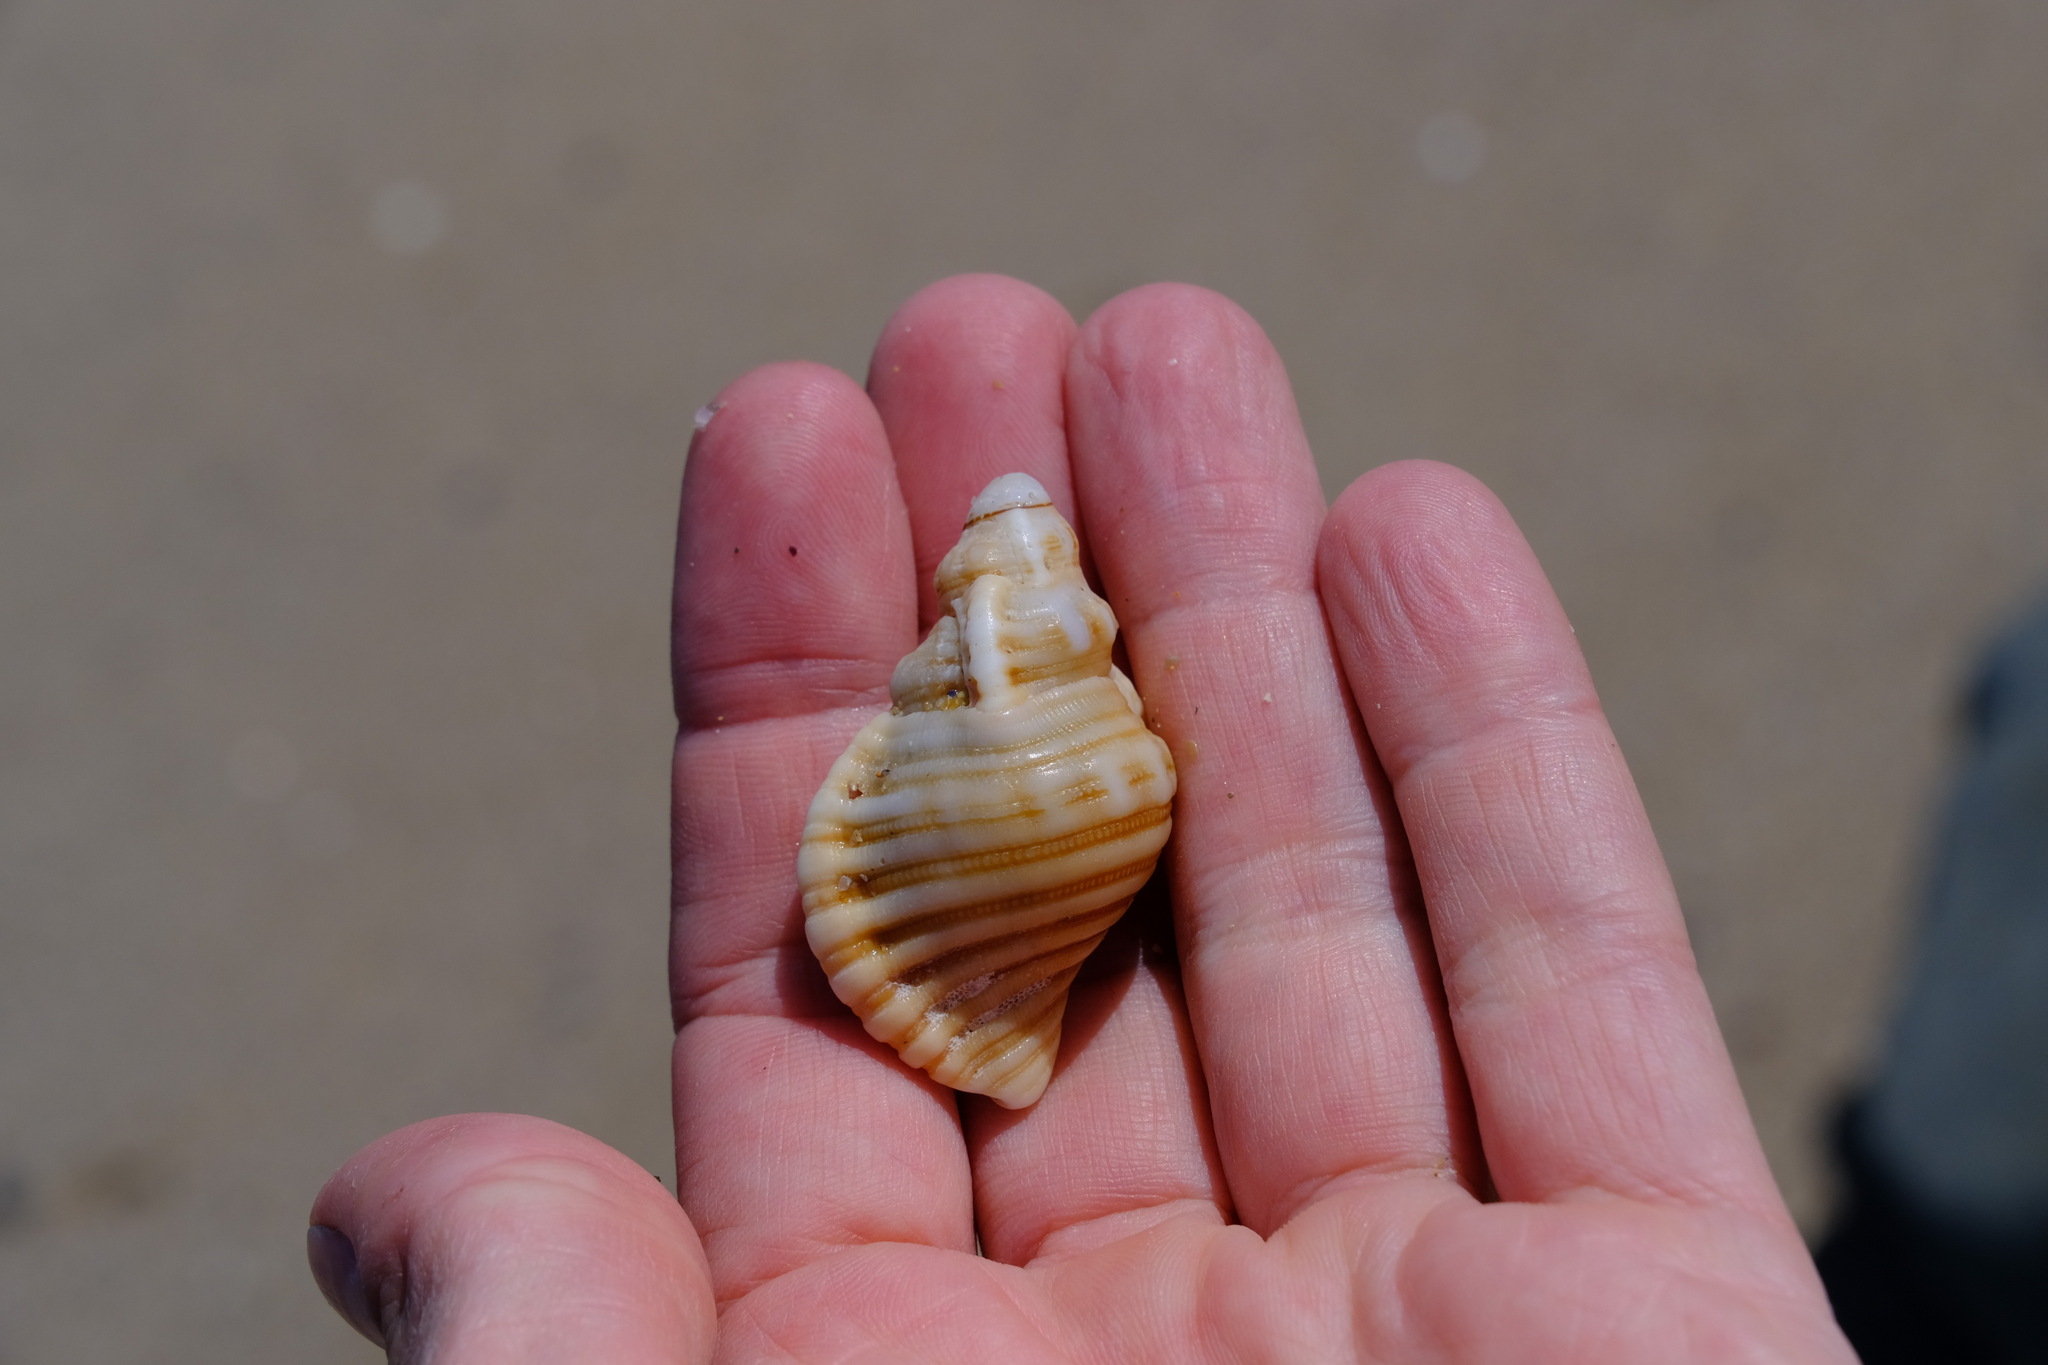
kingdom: Animalia
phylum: Mollusca
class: Gastropoda
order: Littorinimorpha
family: Cymatiidae
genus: Cabestana
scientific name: Cabestana spengleri
